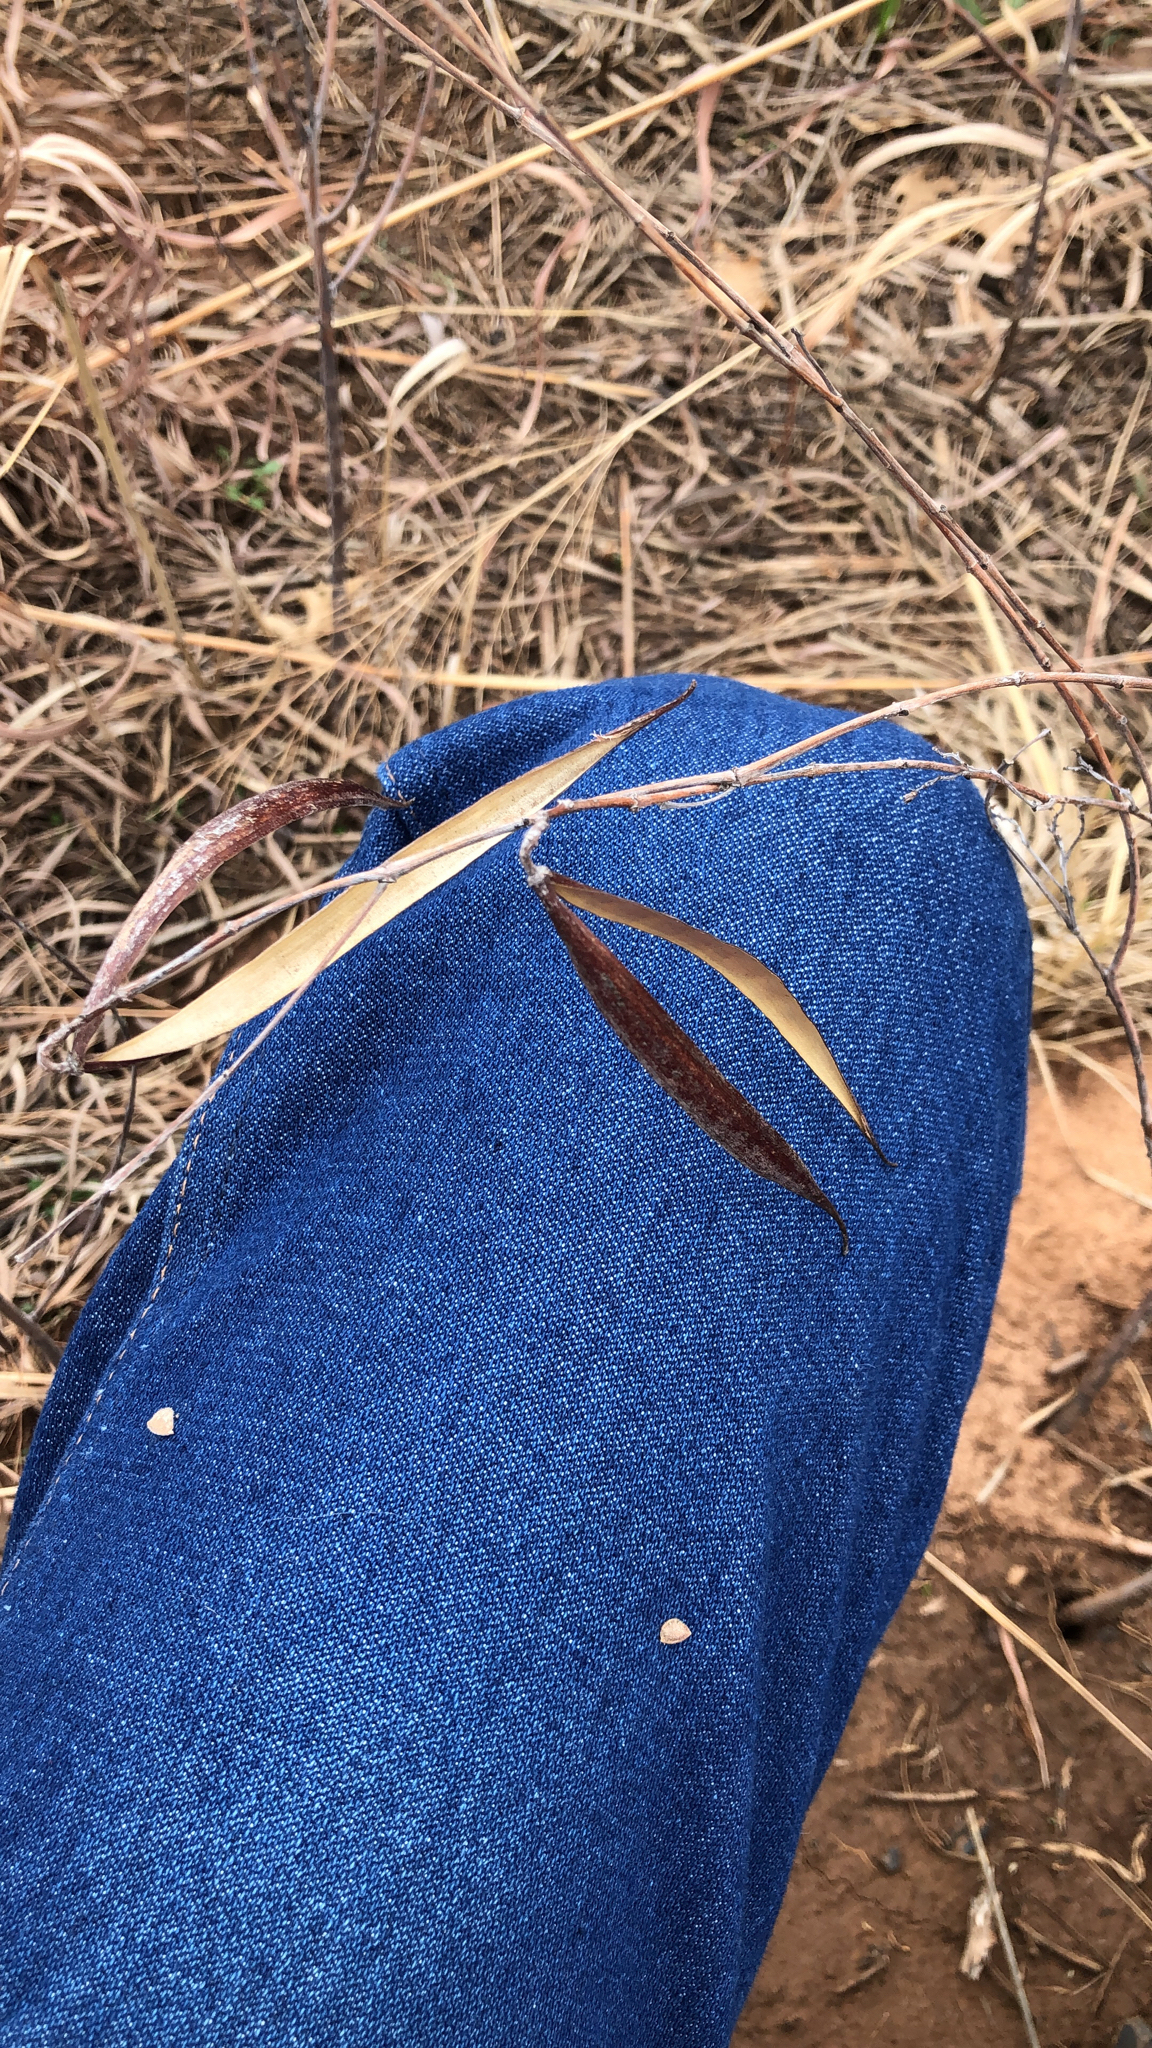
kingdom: Plantae
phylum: Tracheophyta
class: Magnoliopsida
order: Gentianales
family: Apocynaceae
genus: Apocynum
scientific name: Apocynum cannabinum
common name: Hemp dogbane
